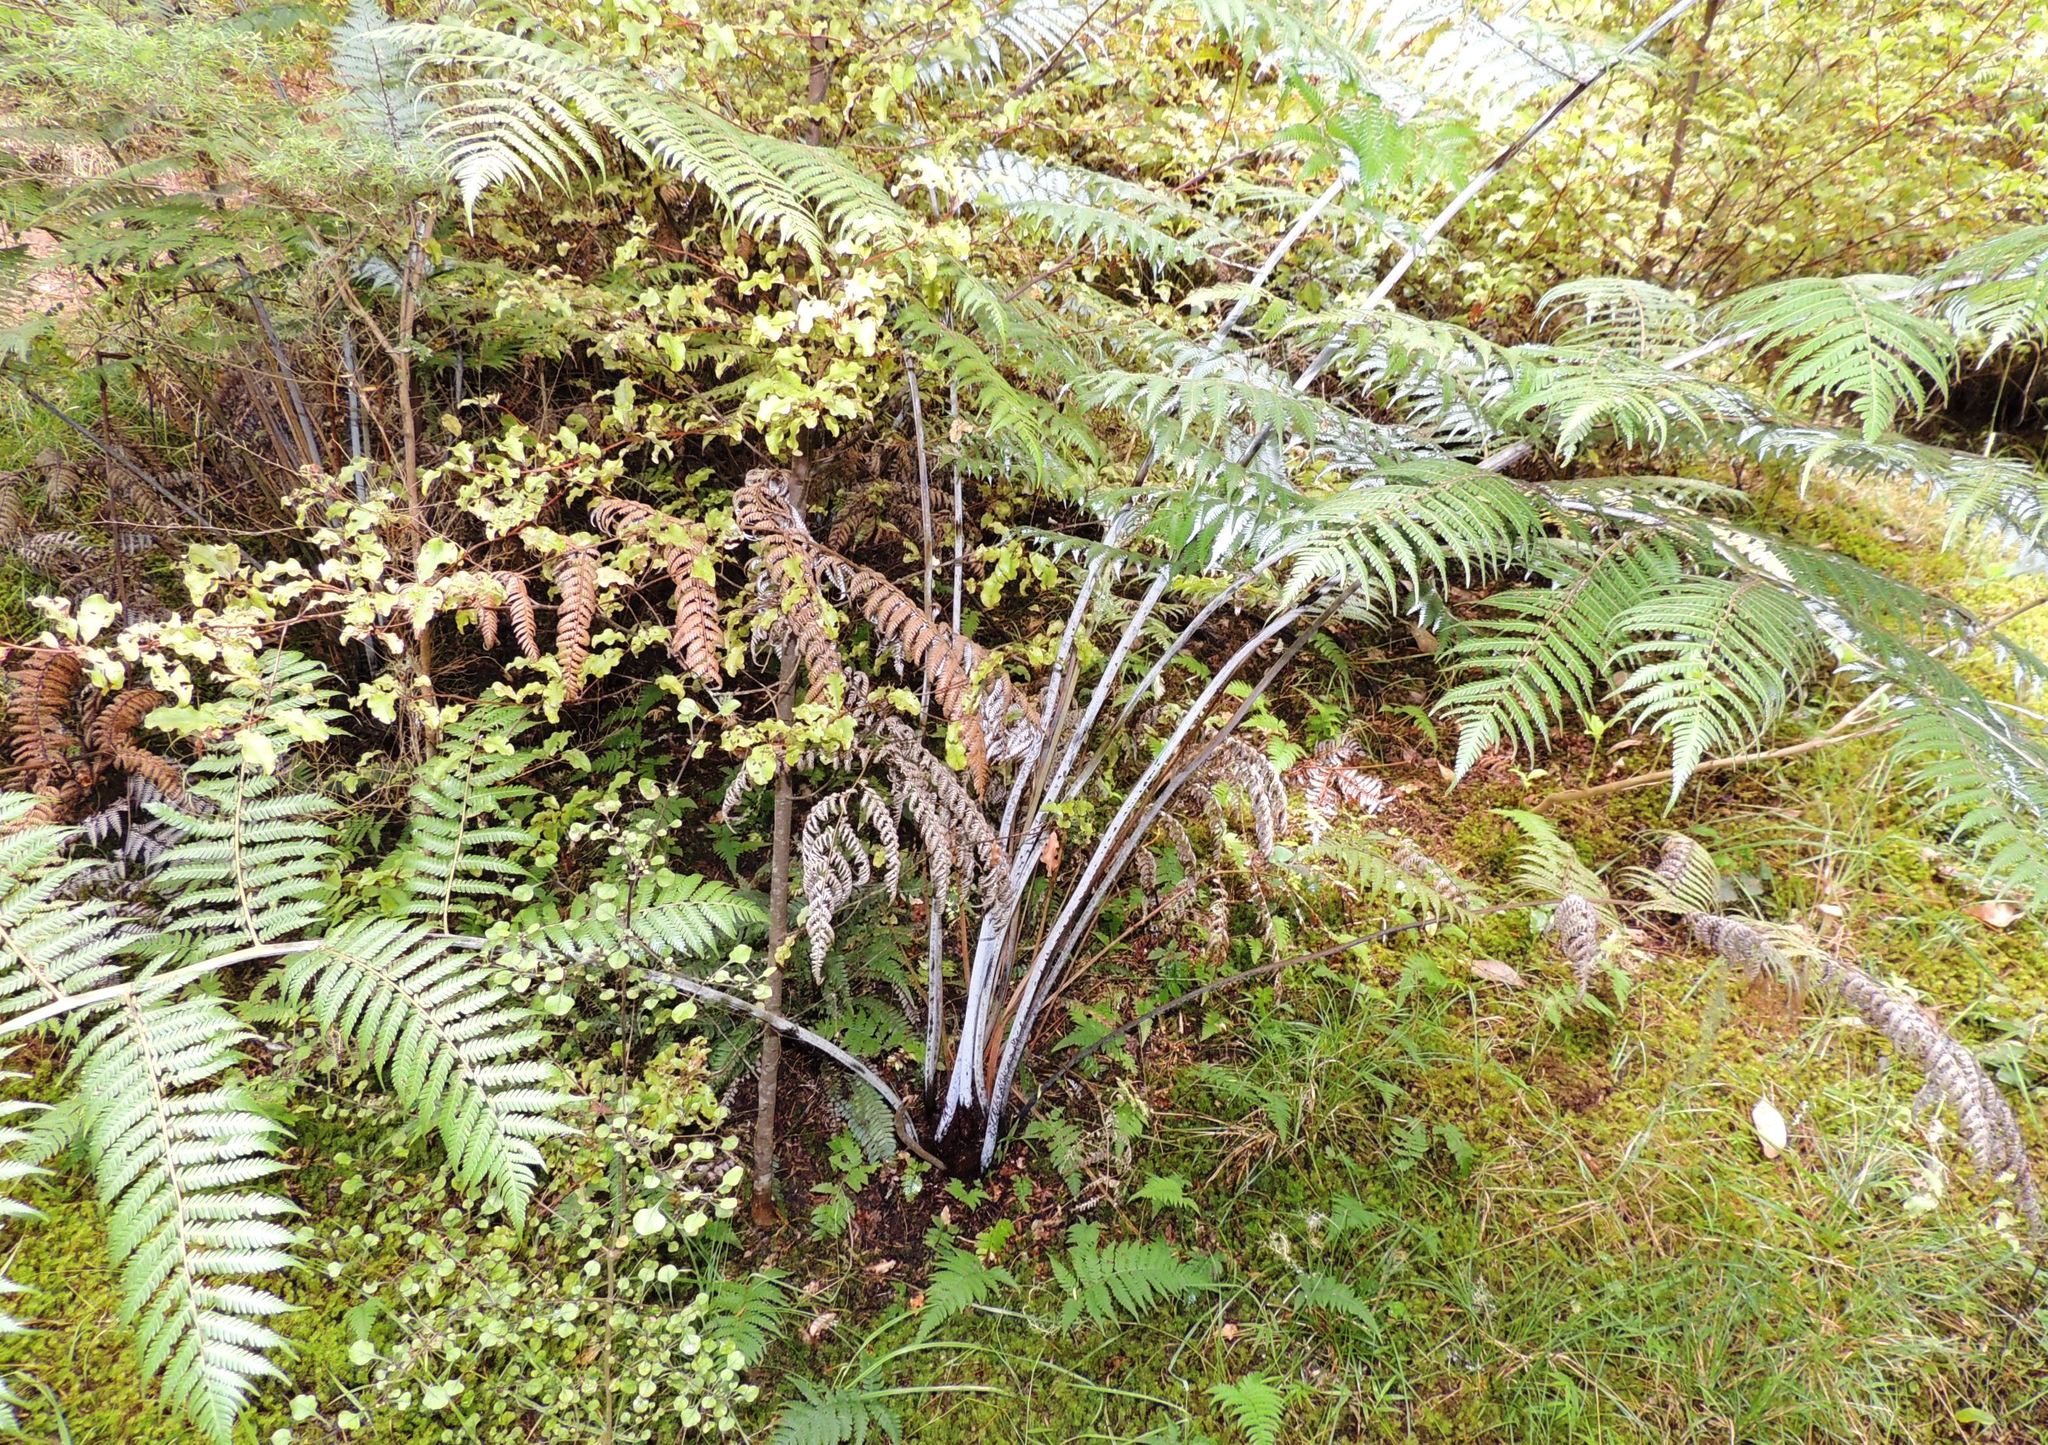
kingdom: Plantae
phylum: Tracheophyta
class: Polypodiopsida
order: Cyatheales
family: Cyatheaceae
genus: Alsophila
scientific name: Alsophila dealbata
